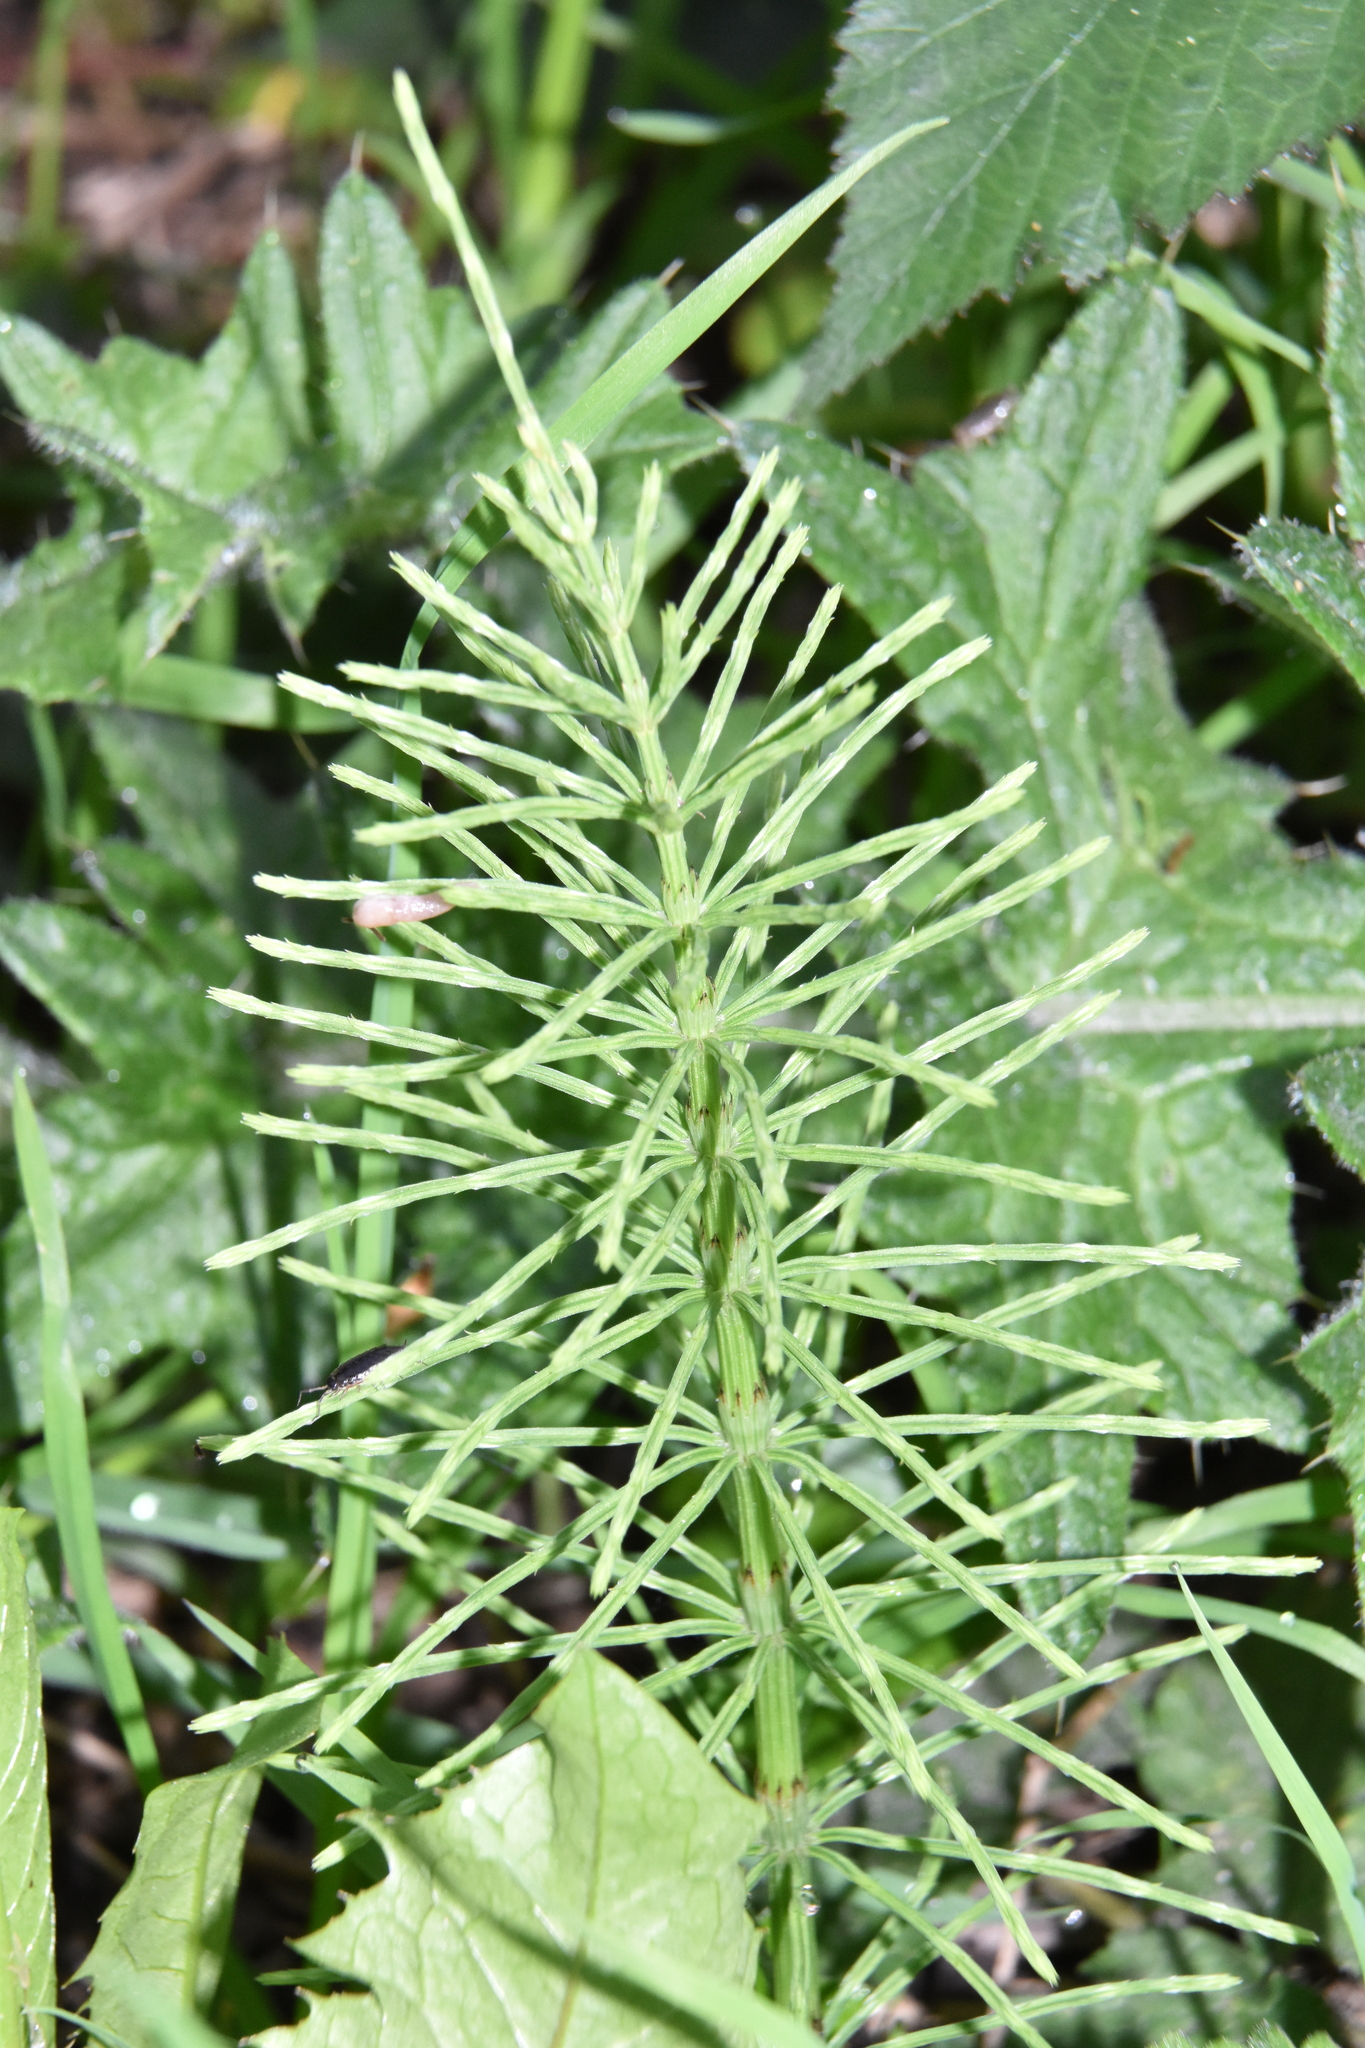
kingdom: Plantae
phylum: Tracheophyta
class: Polypodiopsida
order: Equisetales
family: Equisetaceae
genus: Equisetum
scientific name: Equisetum arvense
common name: Field horsetail
